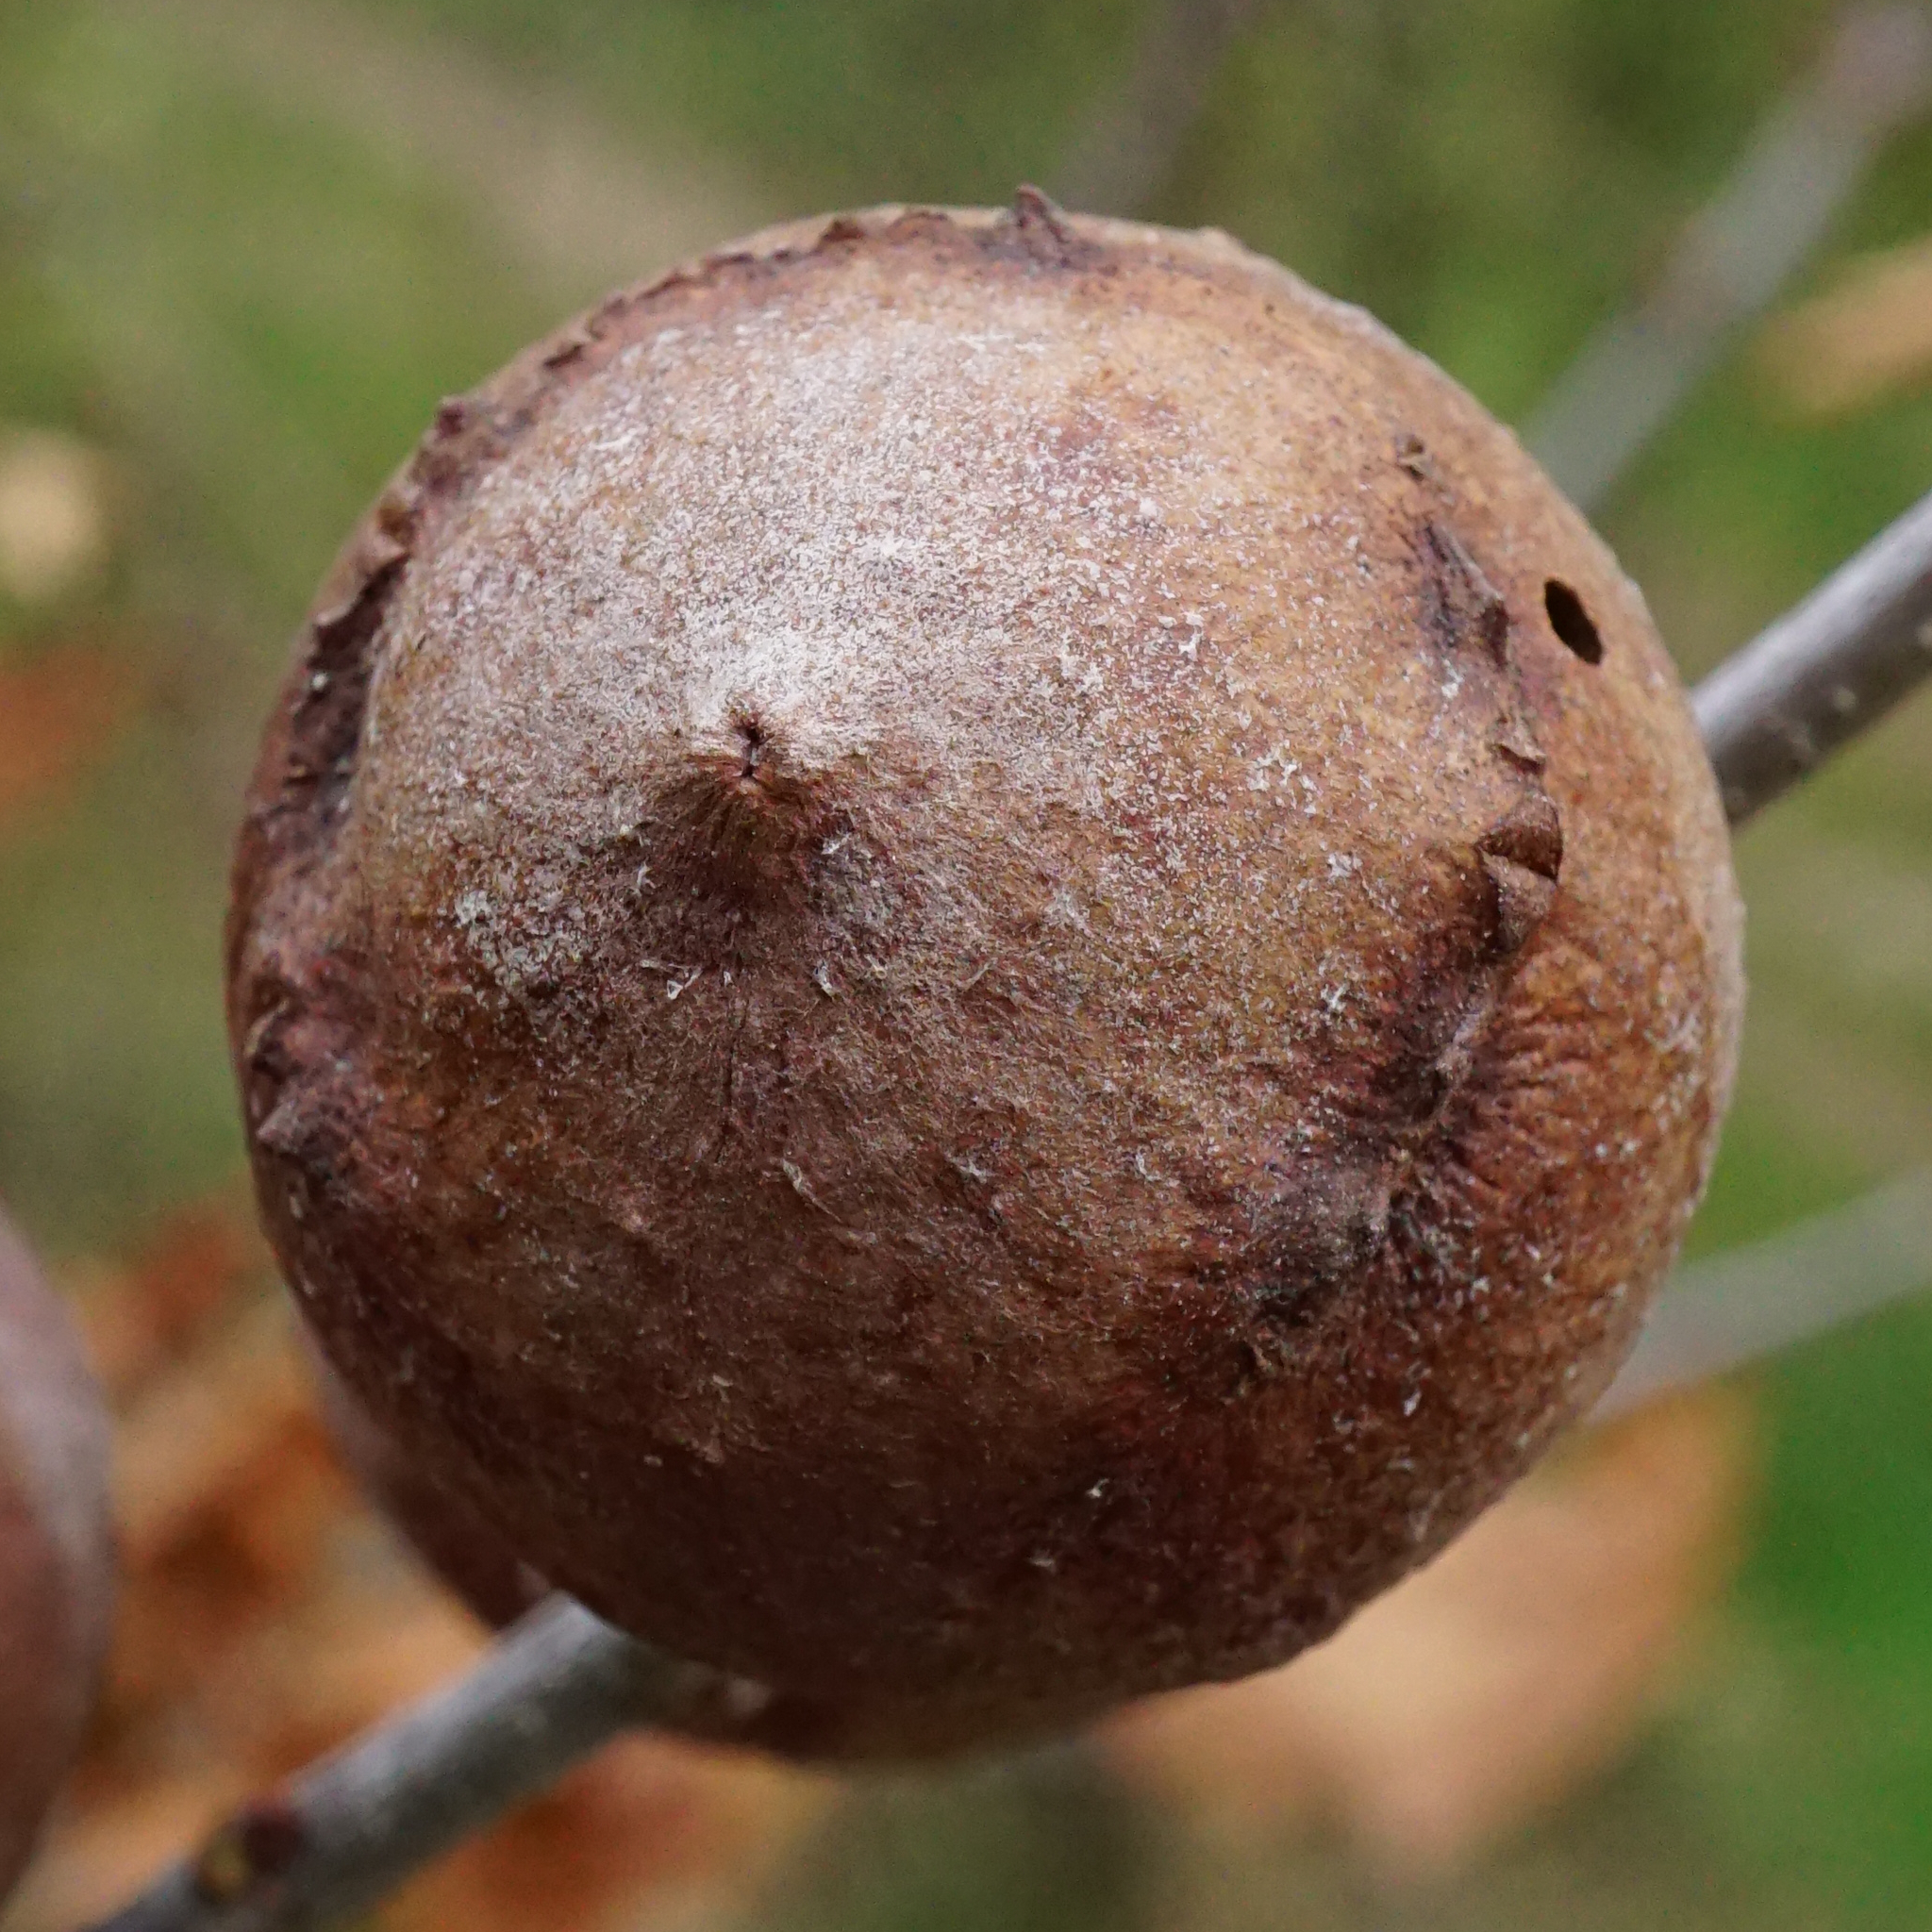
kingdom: Animalia
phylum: Arthropoda
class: Insecta
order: Hymenoptera
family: Cynipidae
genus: Andricus
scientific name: Andricus quercustozae
